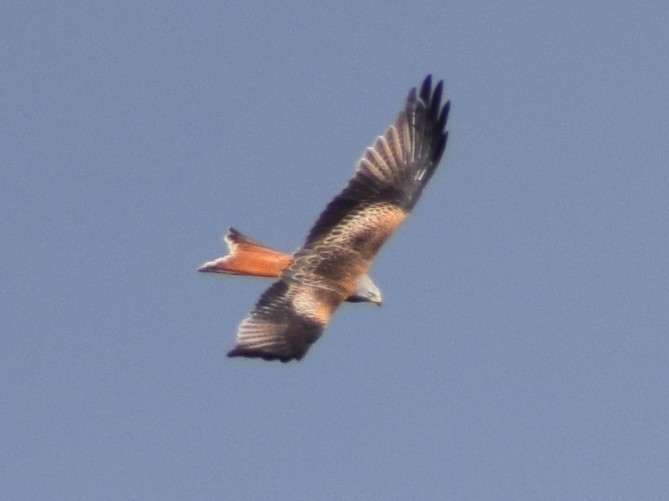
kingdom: Animalia
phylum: Chordata
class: Aves
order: Accipitriformes
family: Accipitridae
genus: Milvus
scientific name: Milvus milvus
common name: Red kite
